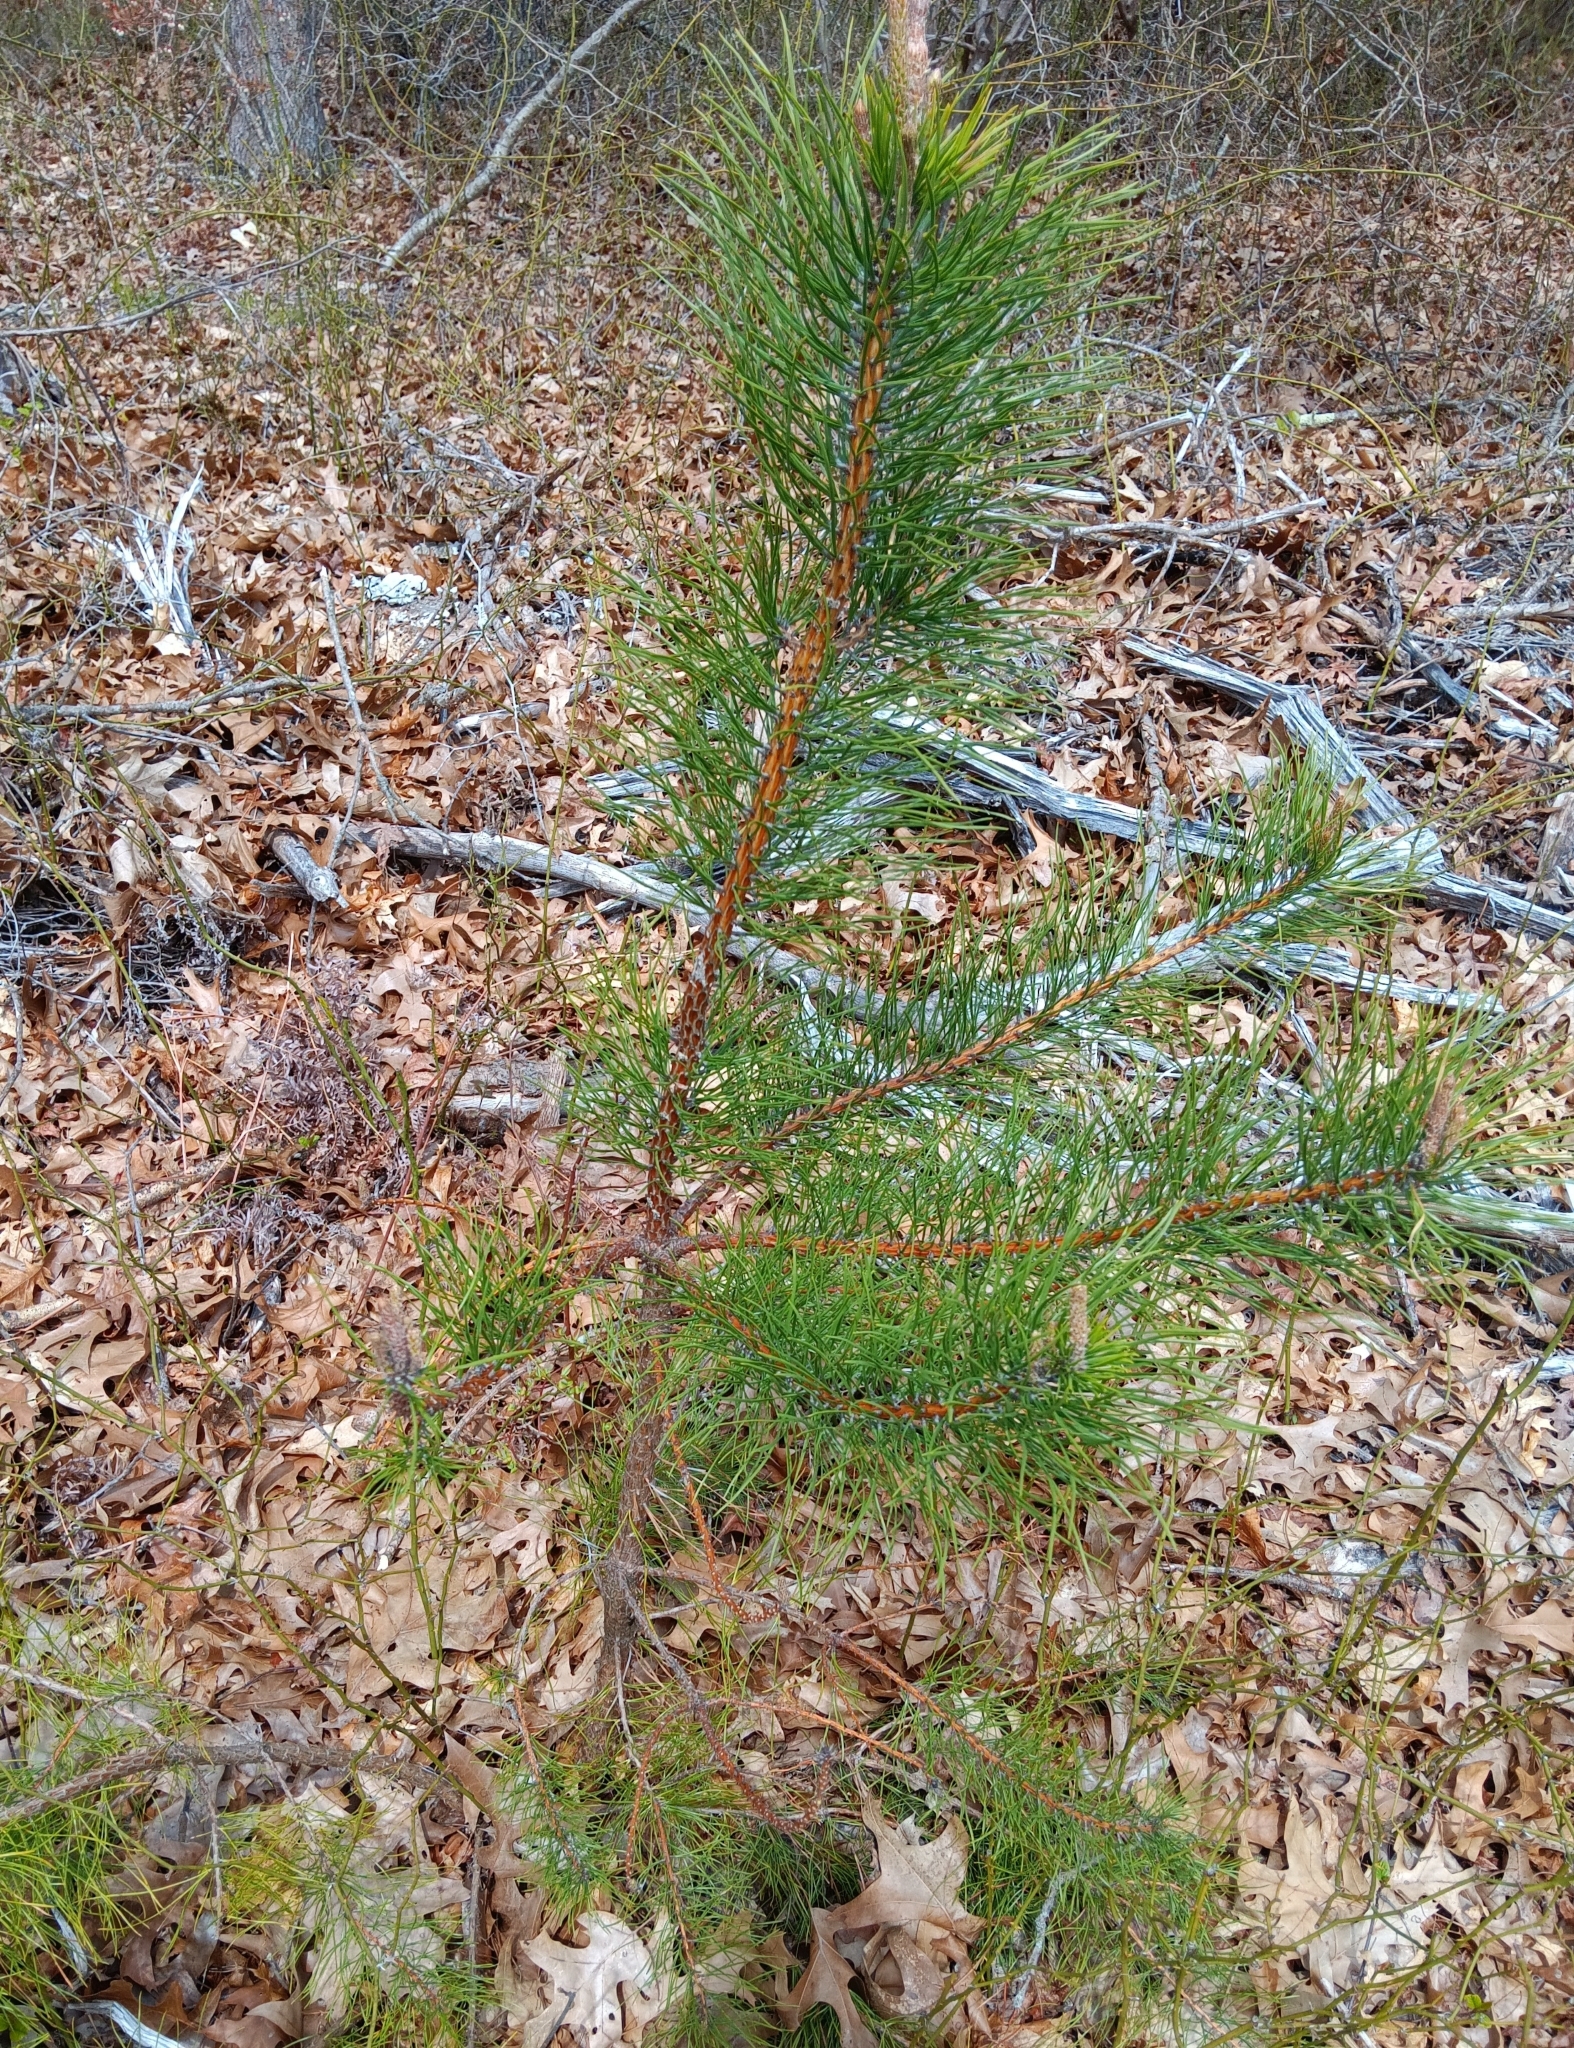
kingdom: Plantae
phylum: Tracheophyta
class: Pinopsida
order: Pinales
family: Pinaceae
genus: Pinus
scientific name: Pinus rigida
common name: Pitch pine
